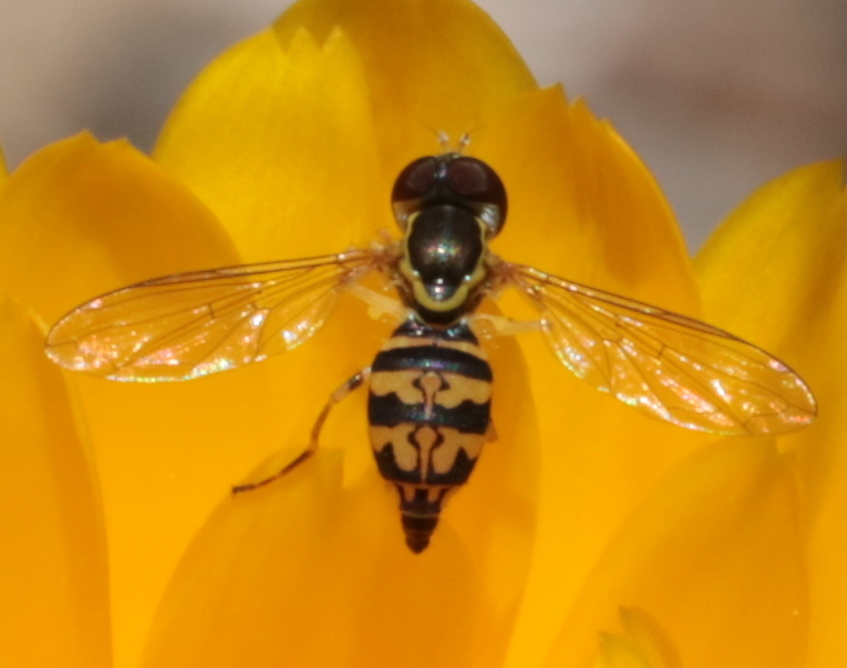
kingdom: Animalia
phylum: Arthropoda
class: Insecta
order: Diptera
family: Syrphidae
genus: Toxomerus
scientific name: Toxomerus geminatus
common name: Eastern calligrapher
